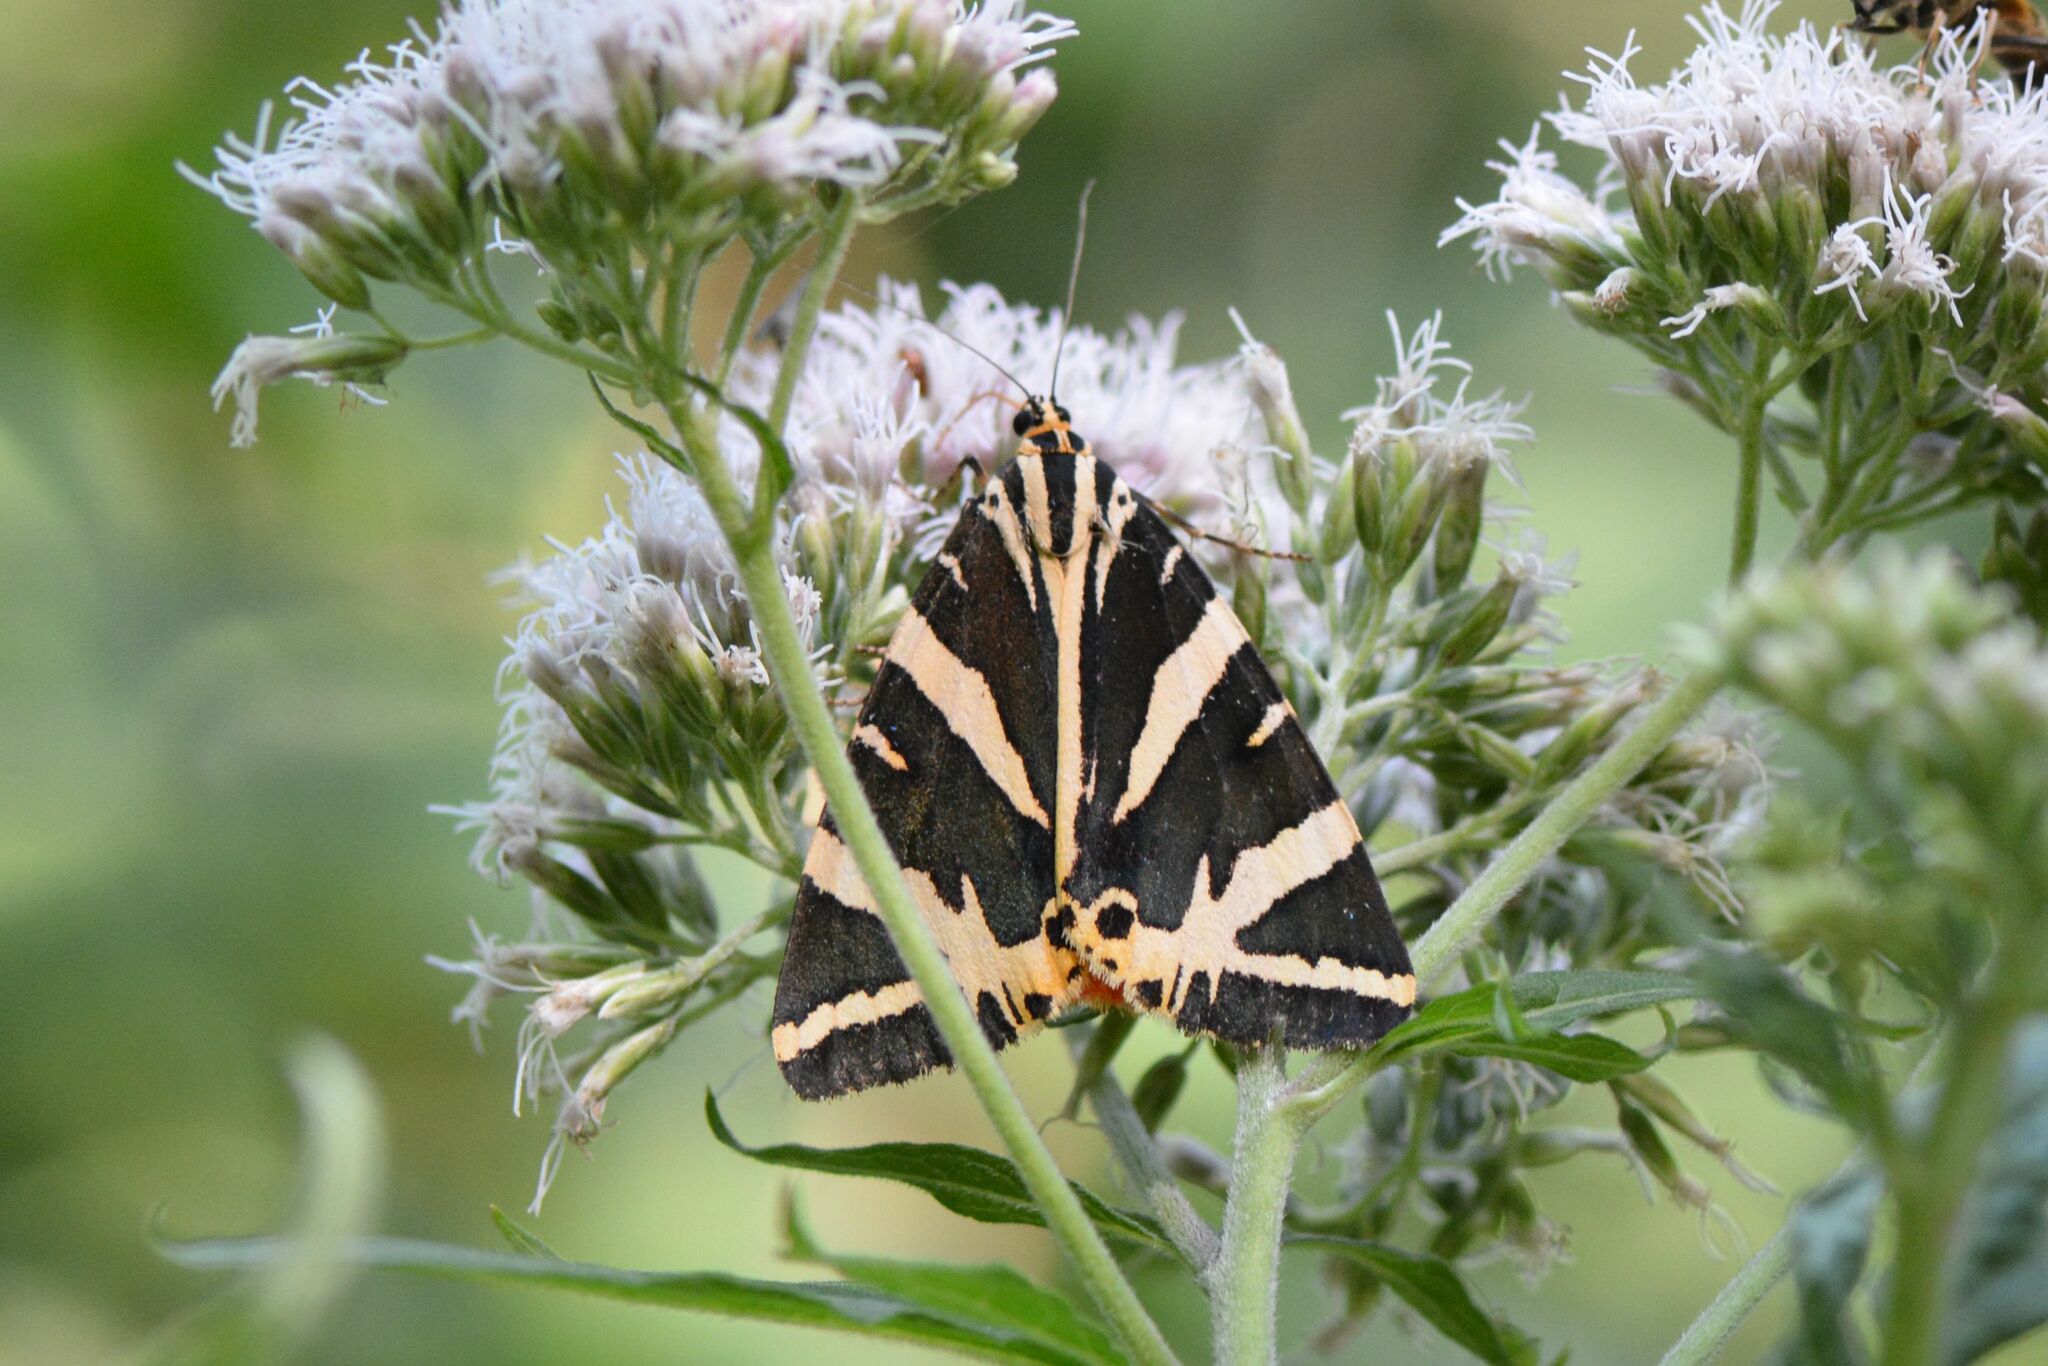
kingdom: Animalia
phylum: Arthropoda
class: Insecta
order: Lepidoptera
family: Erebidae
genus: Euplagia
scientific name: Euplagia quadripunctaria
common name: Jersey tiger
